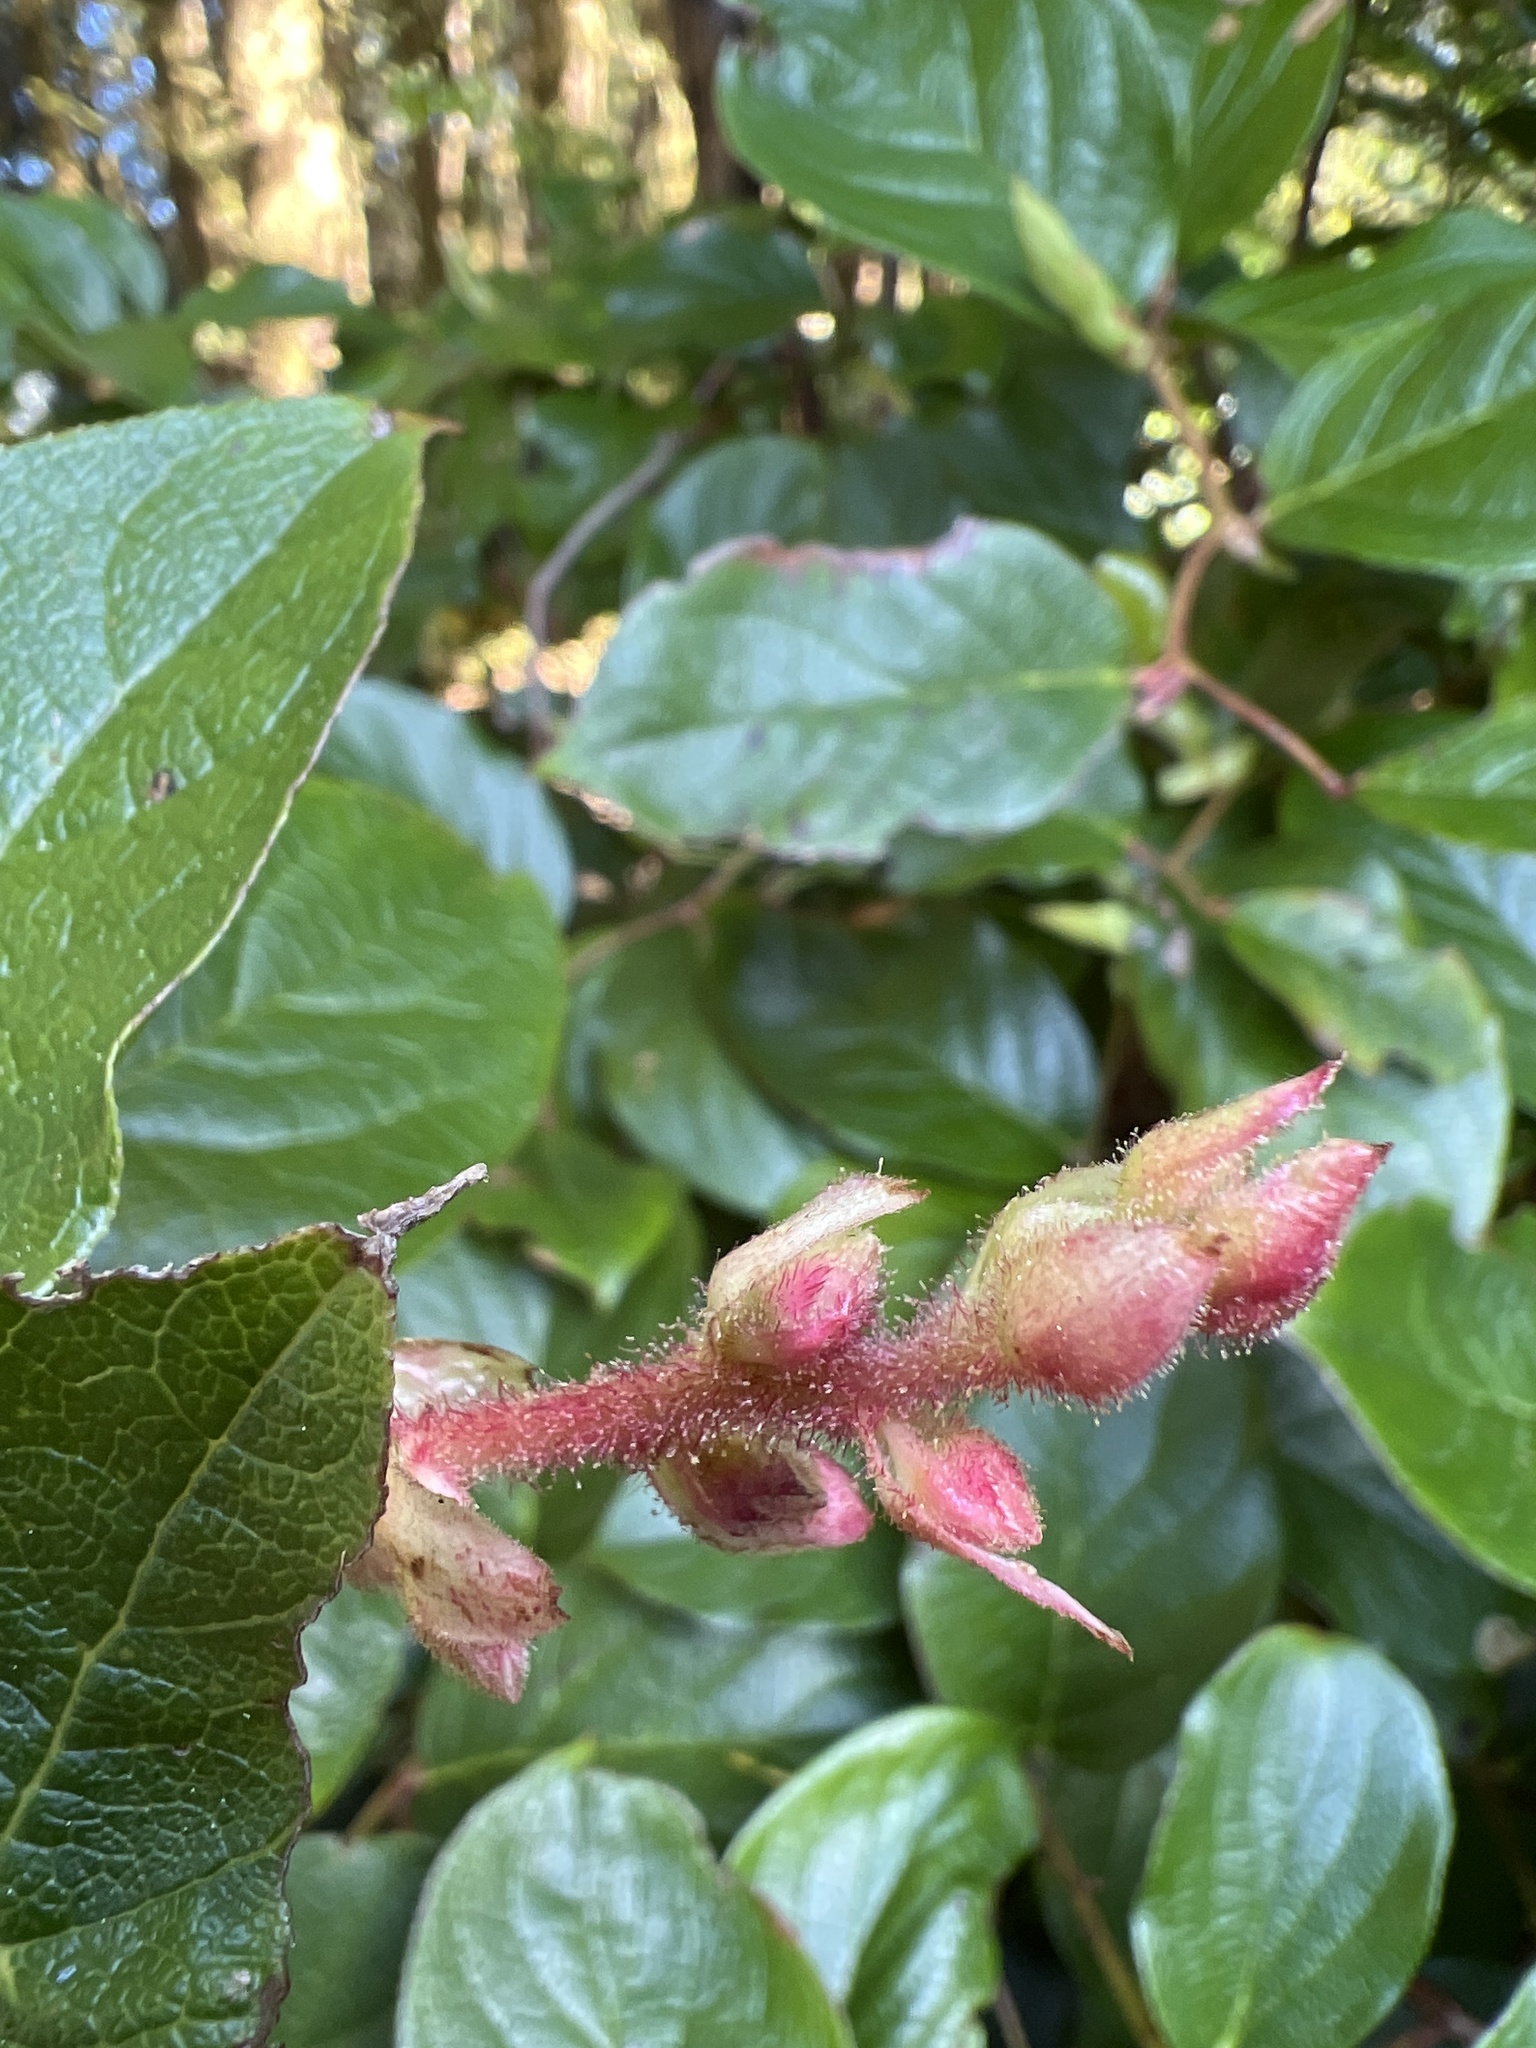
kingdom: Plantae
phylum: Tracheophyta
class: Magnoliopsida
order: Ericales
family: Ericaceae
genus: Gaultheria
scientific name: Gaultheria shallon
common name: Shallon
